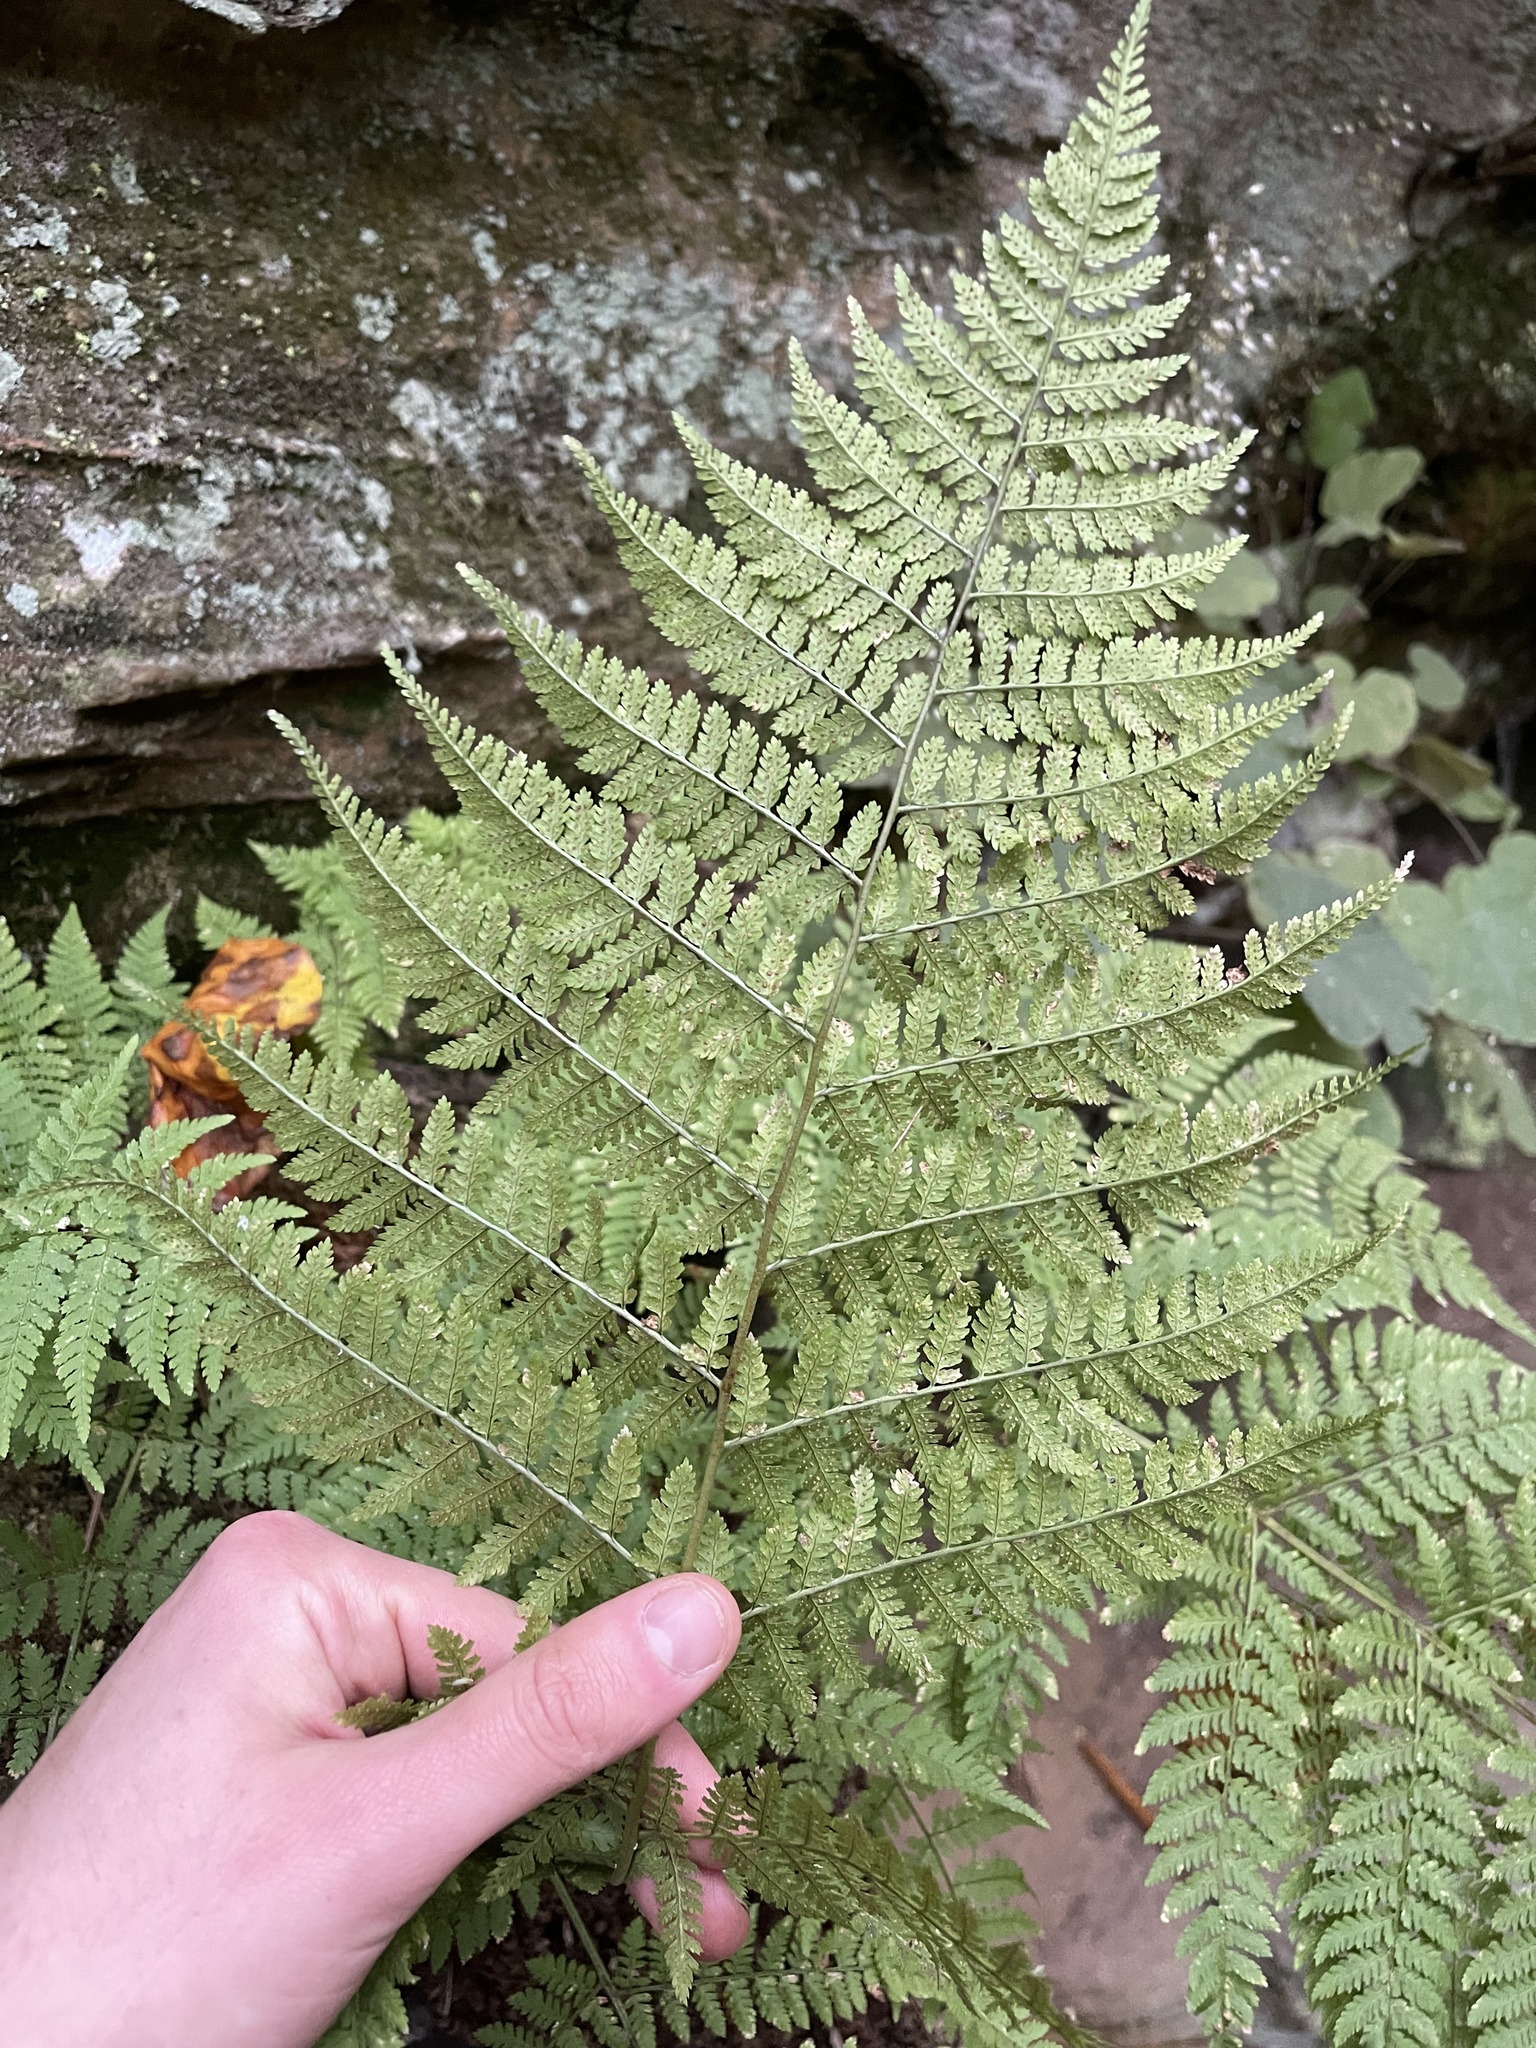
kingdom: Plantae
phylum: Tracheophyta
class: Liliopsida
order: Dioscoreales
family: Dioscoreaceae
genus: Dioscorea
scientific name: Dioscorea villosa
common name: Wild yam
